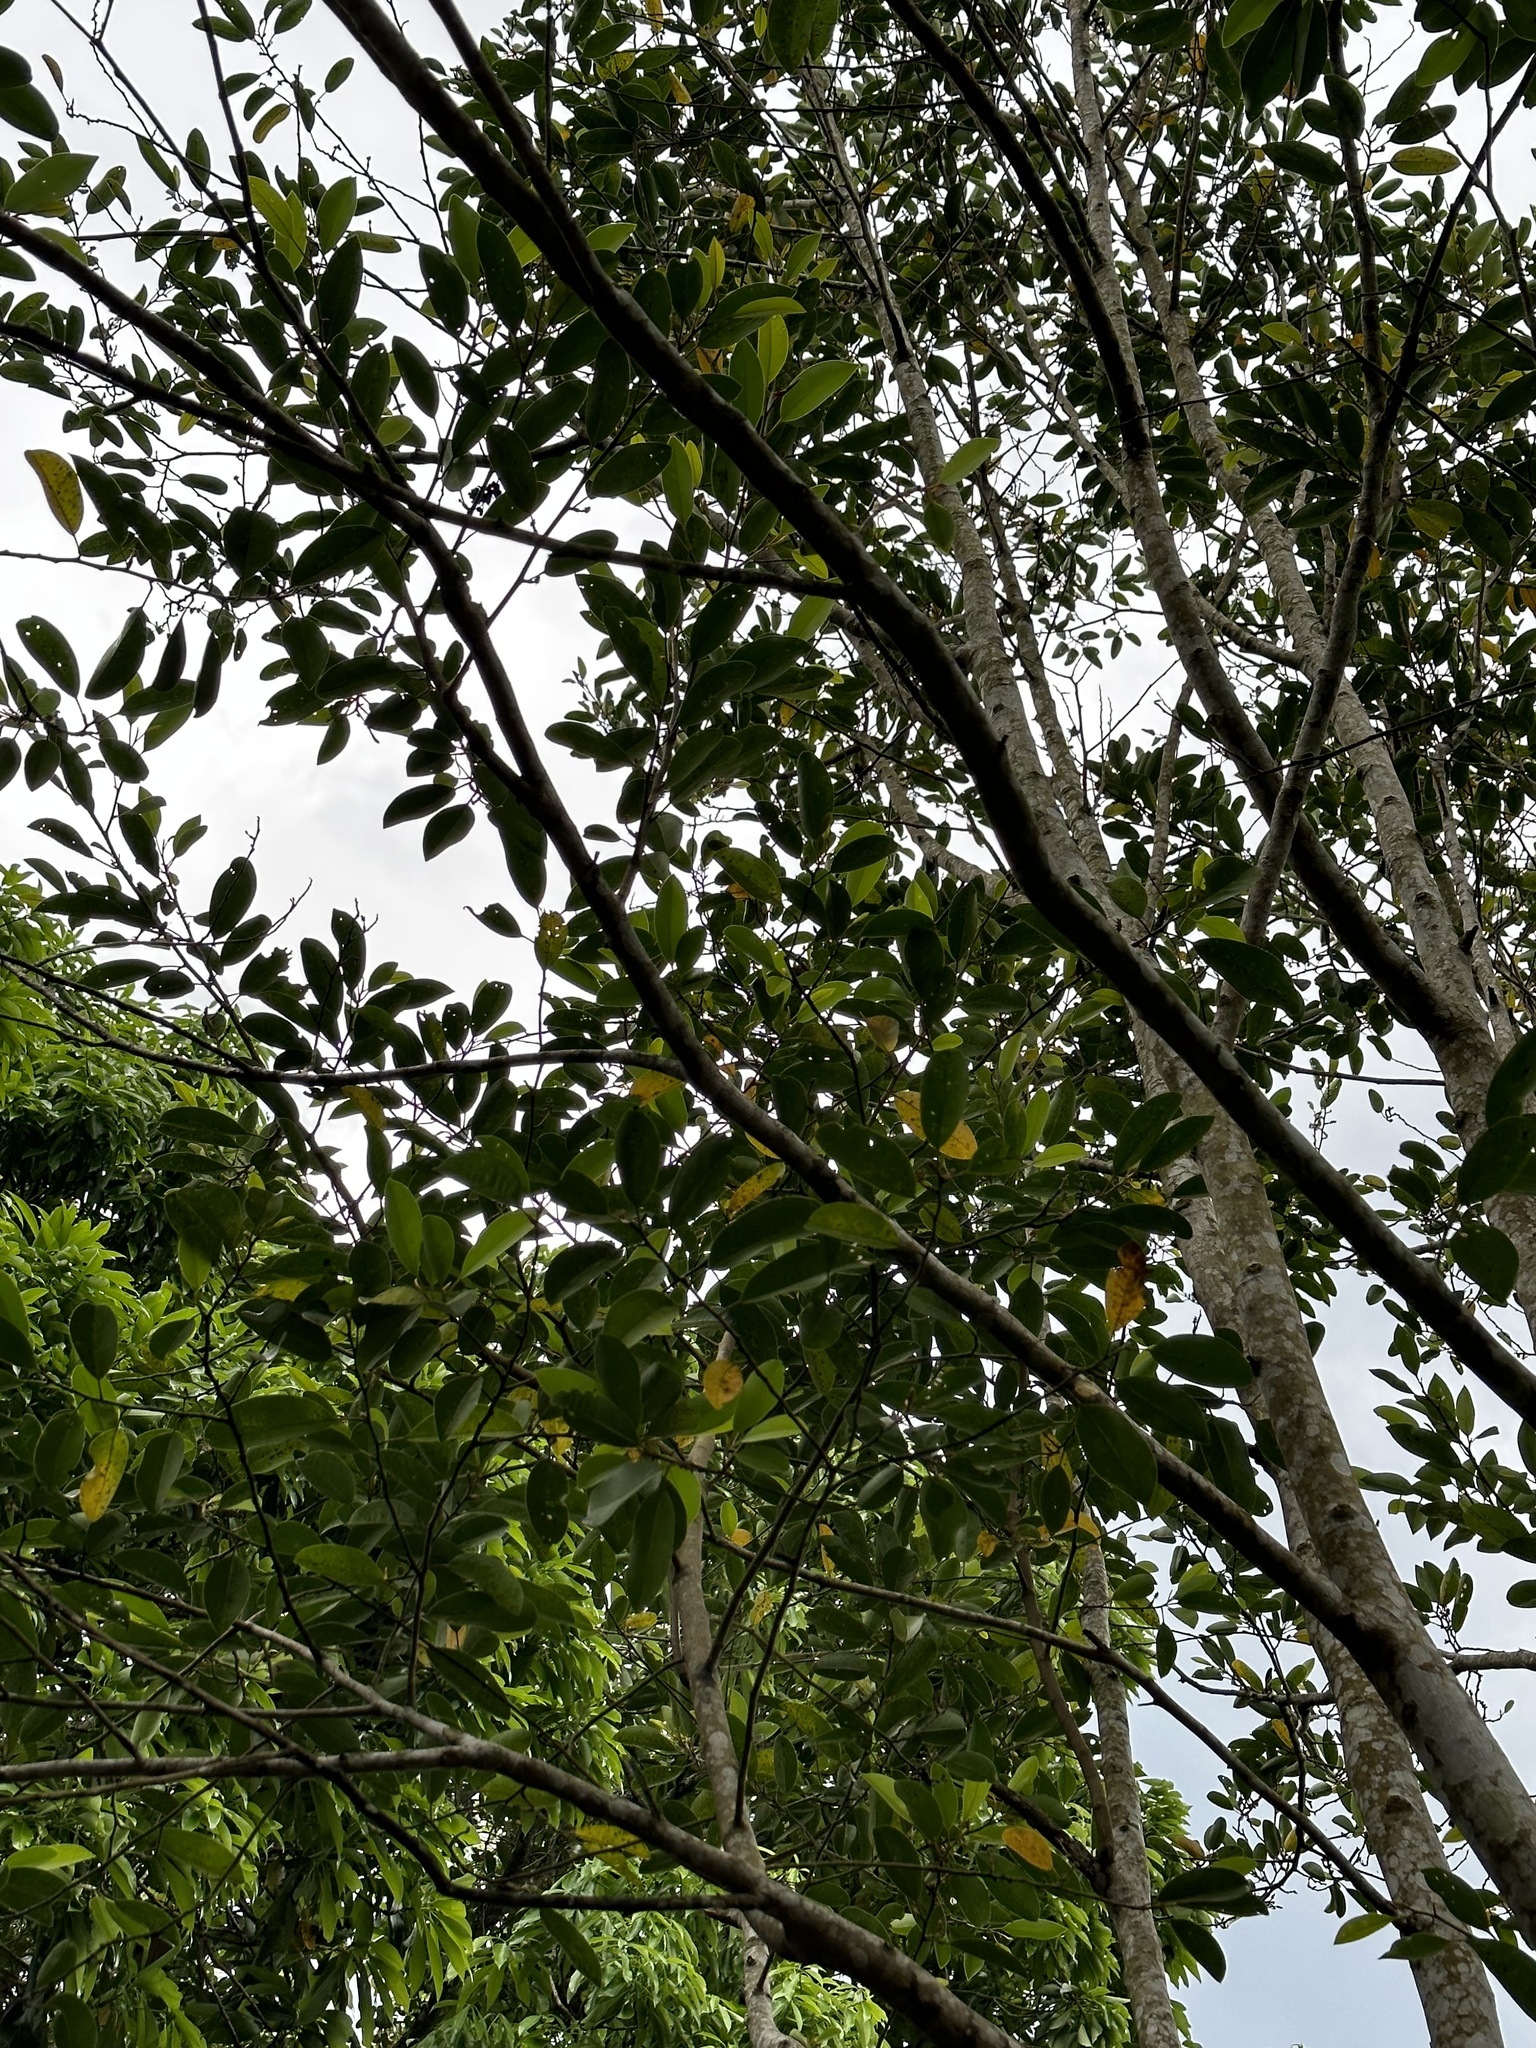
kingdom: Plantae
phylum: Tracheophyta
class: Magnoliopsida
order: Magnoliales
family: Magnoliaceae
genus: Magnolia
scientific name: Magnolia compressa
